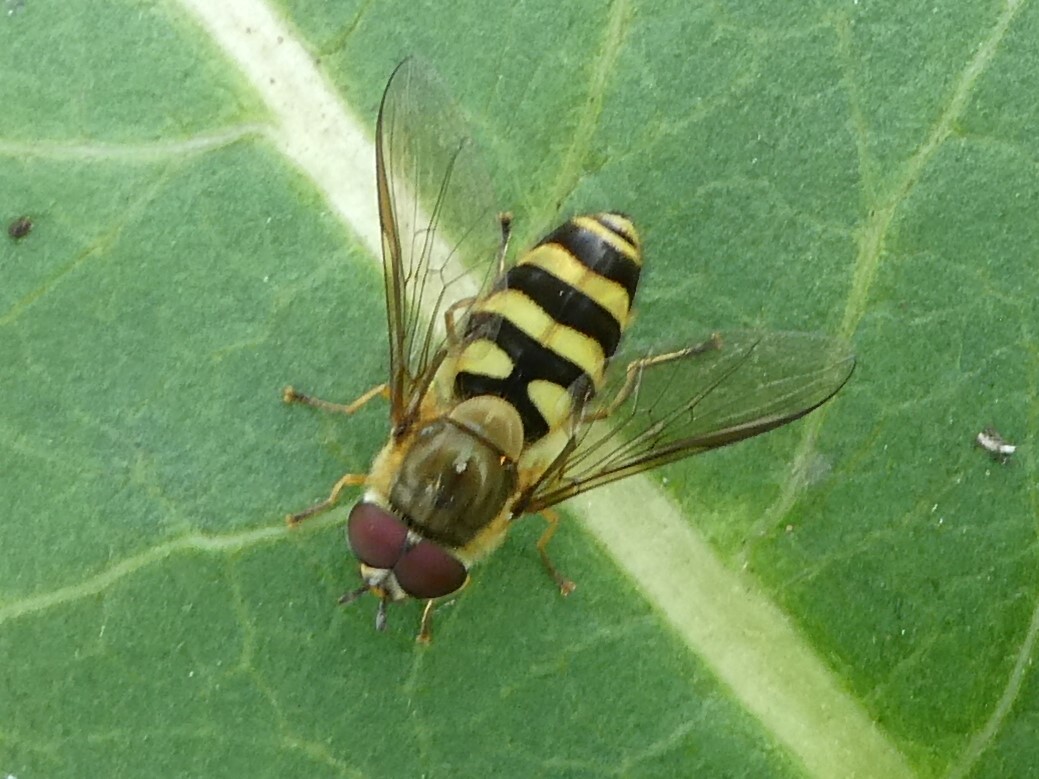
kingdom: Animalia
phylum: Arthropoda
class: Insecta
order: Diptera
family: Syrphidae
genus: Syrphus
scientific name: Syrphus
